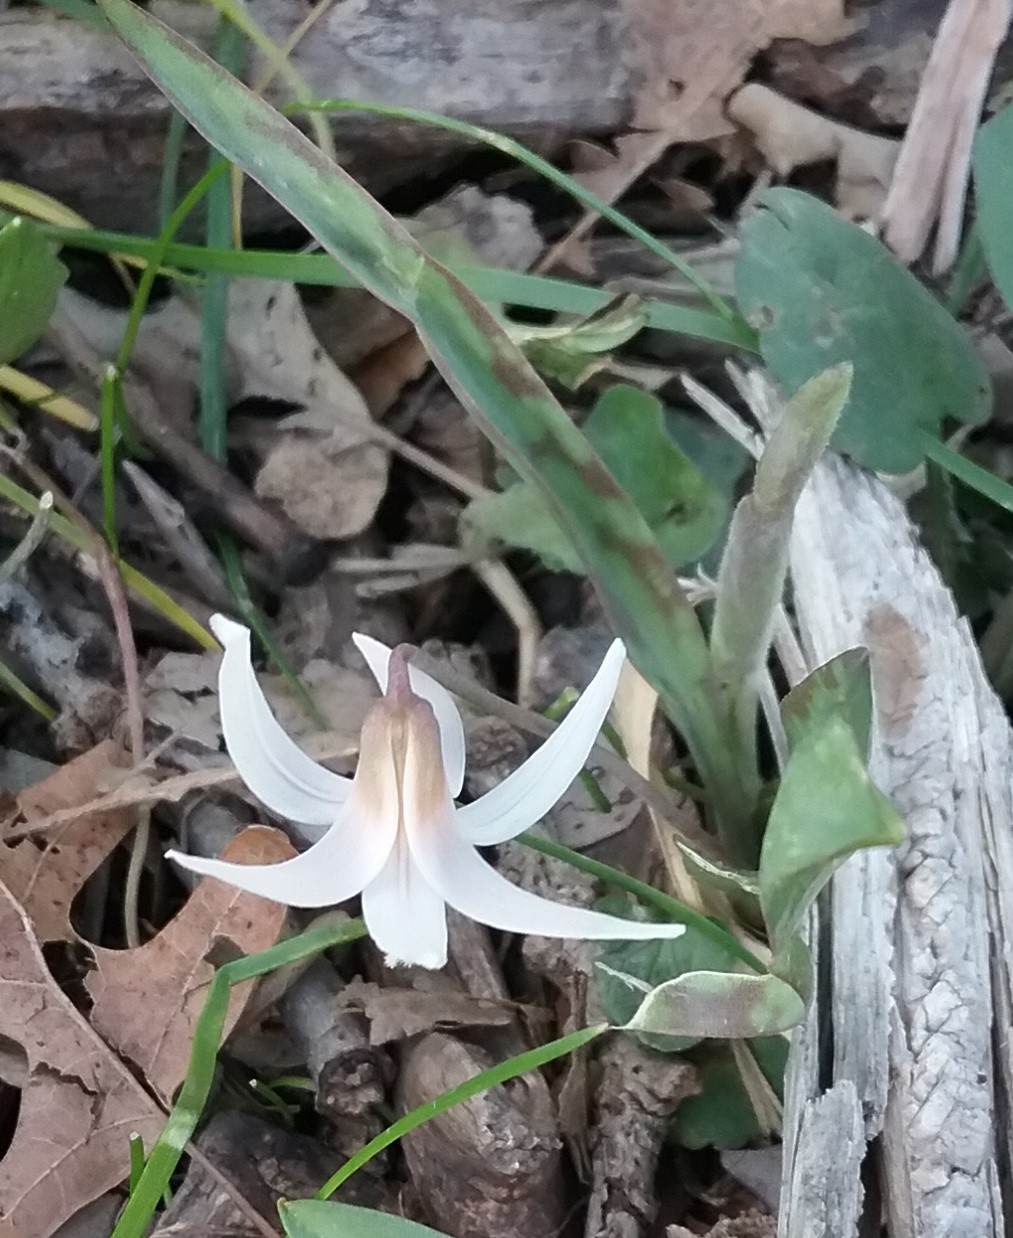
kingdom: Plantae
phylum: Tracheophyta
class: Liliopsida
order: Liliales
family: Liliaceae
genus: Erythronium
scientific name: Erythronium albidum
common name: White trout-lily
